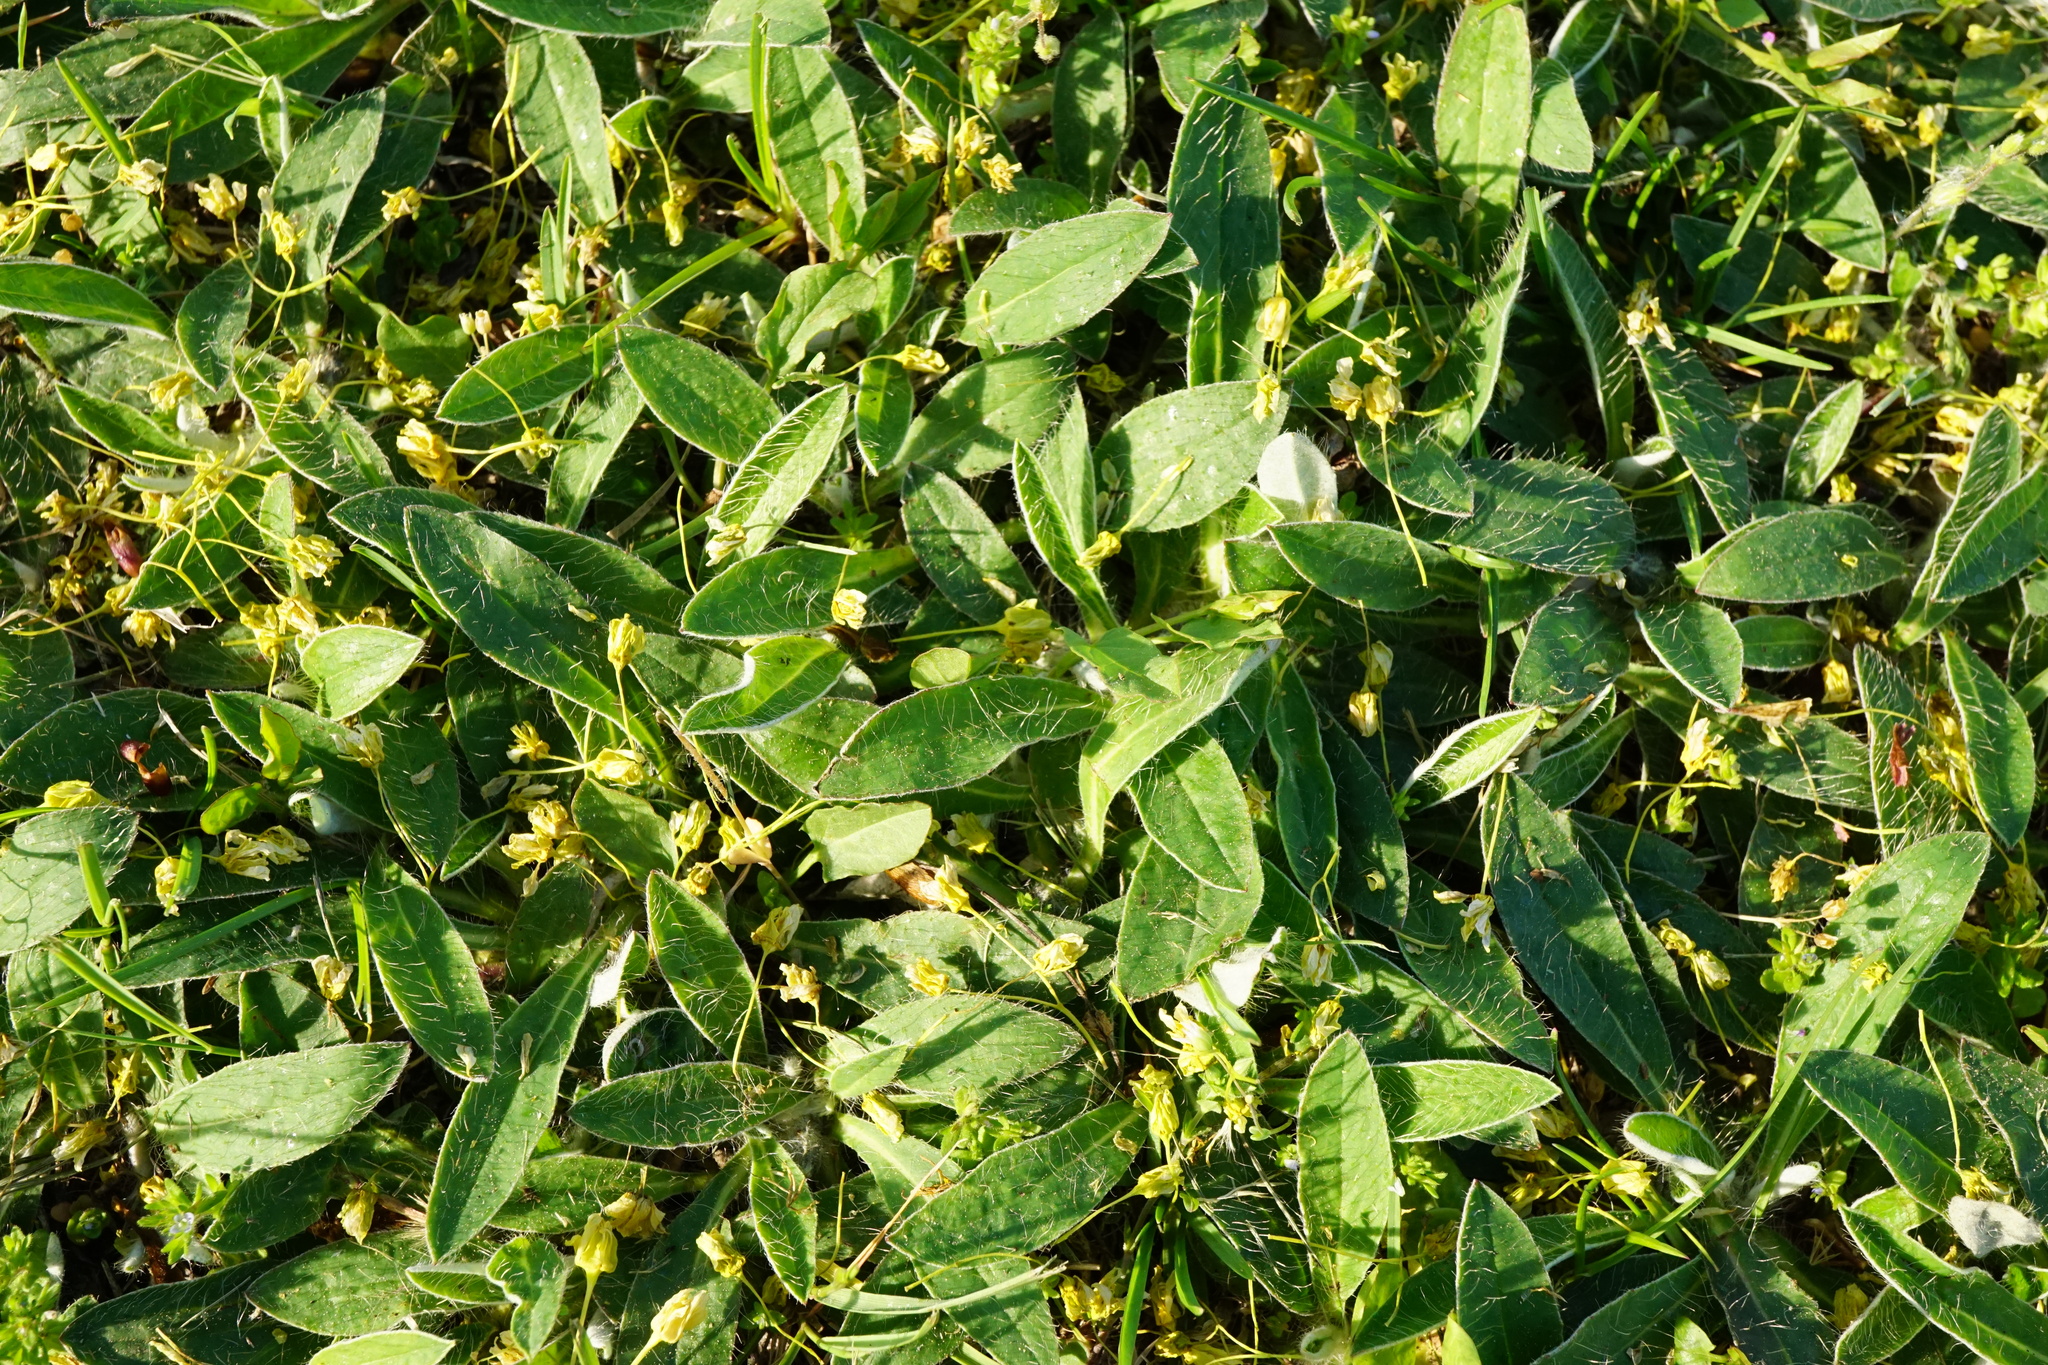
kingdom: Plantae
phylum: Tracheophyta
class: Magnoliopsida
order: Asterales
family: Asteraceae
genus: Pilosella
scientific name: Pilosella officinarum
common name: Mouse-ear hawkweed
